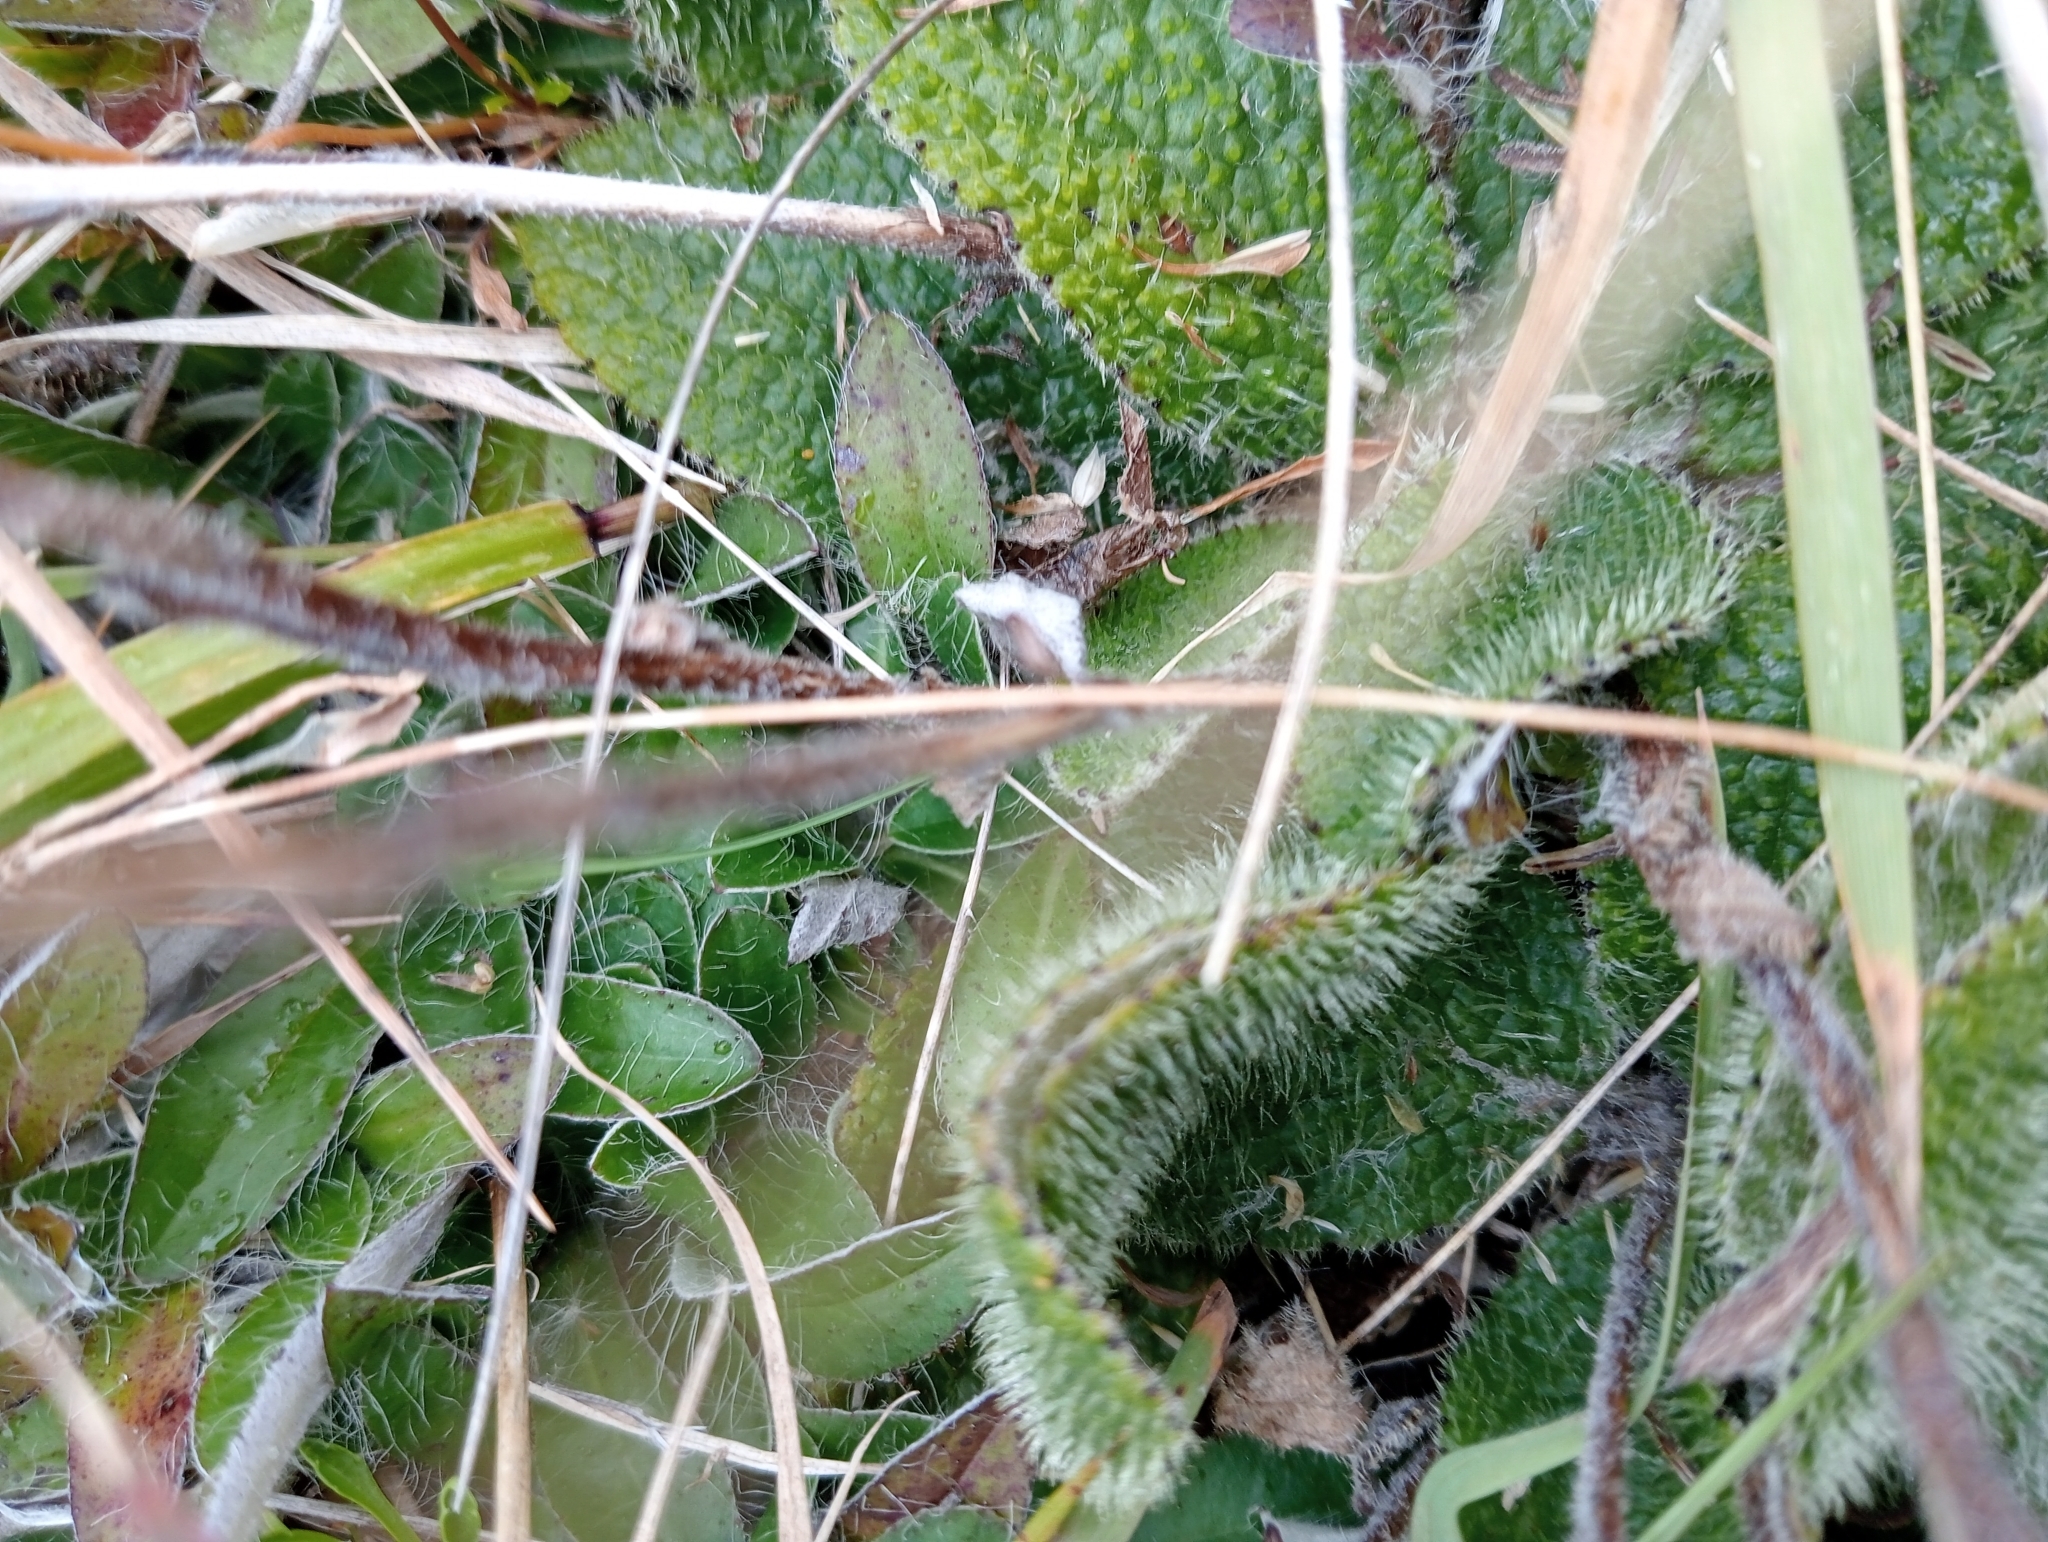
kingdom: Plantae
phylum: Tracheophyta
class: Magnoliopsida
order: Asterales
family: Asteraceae
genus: Brachyglottis
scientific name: Brachyglottis bellidioides
